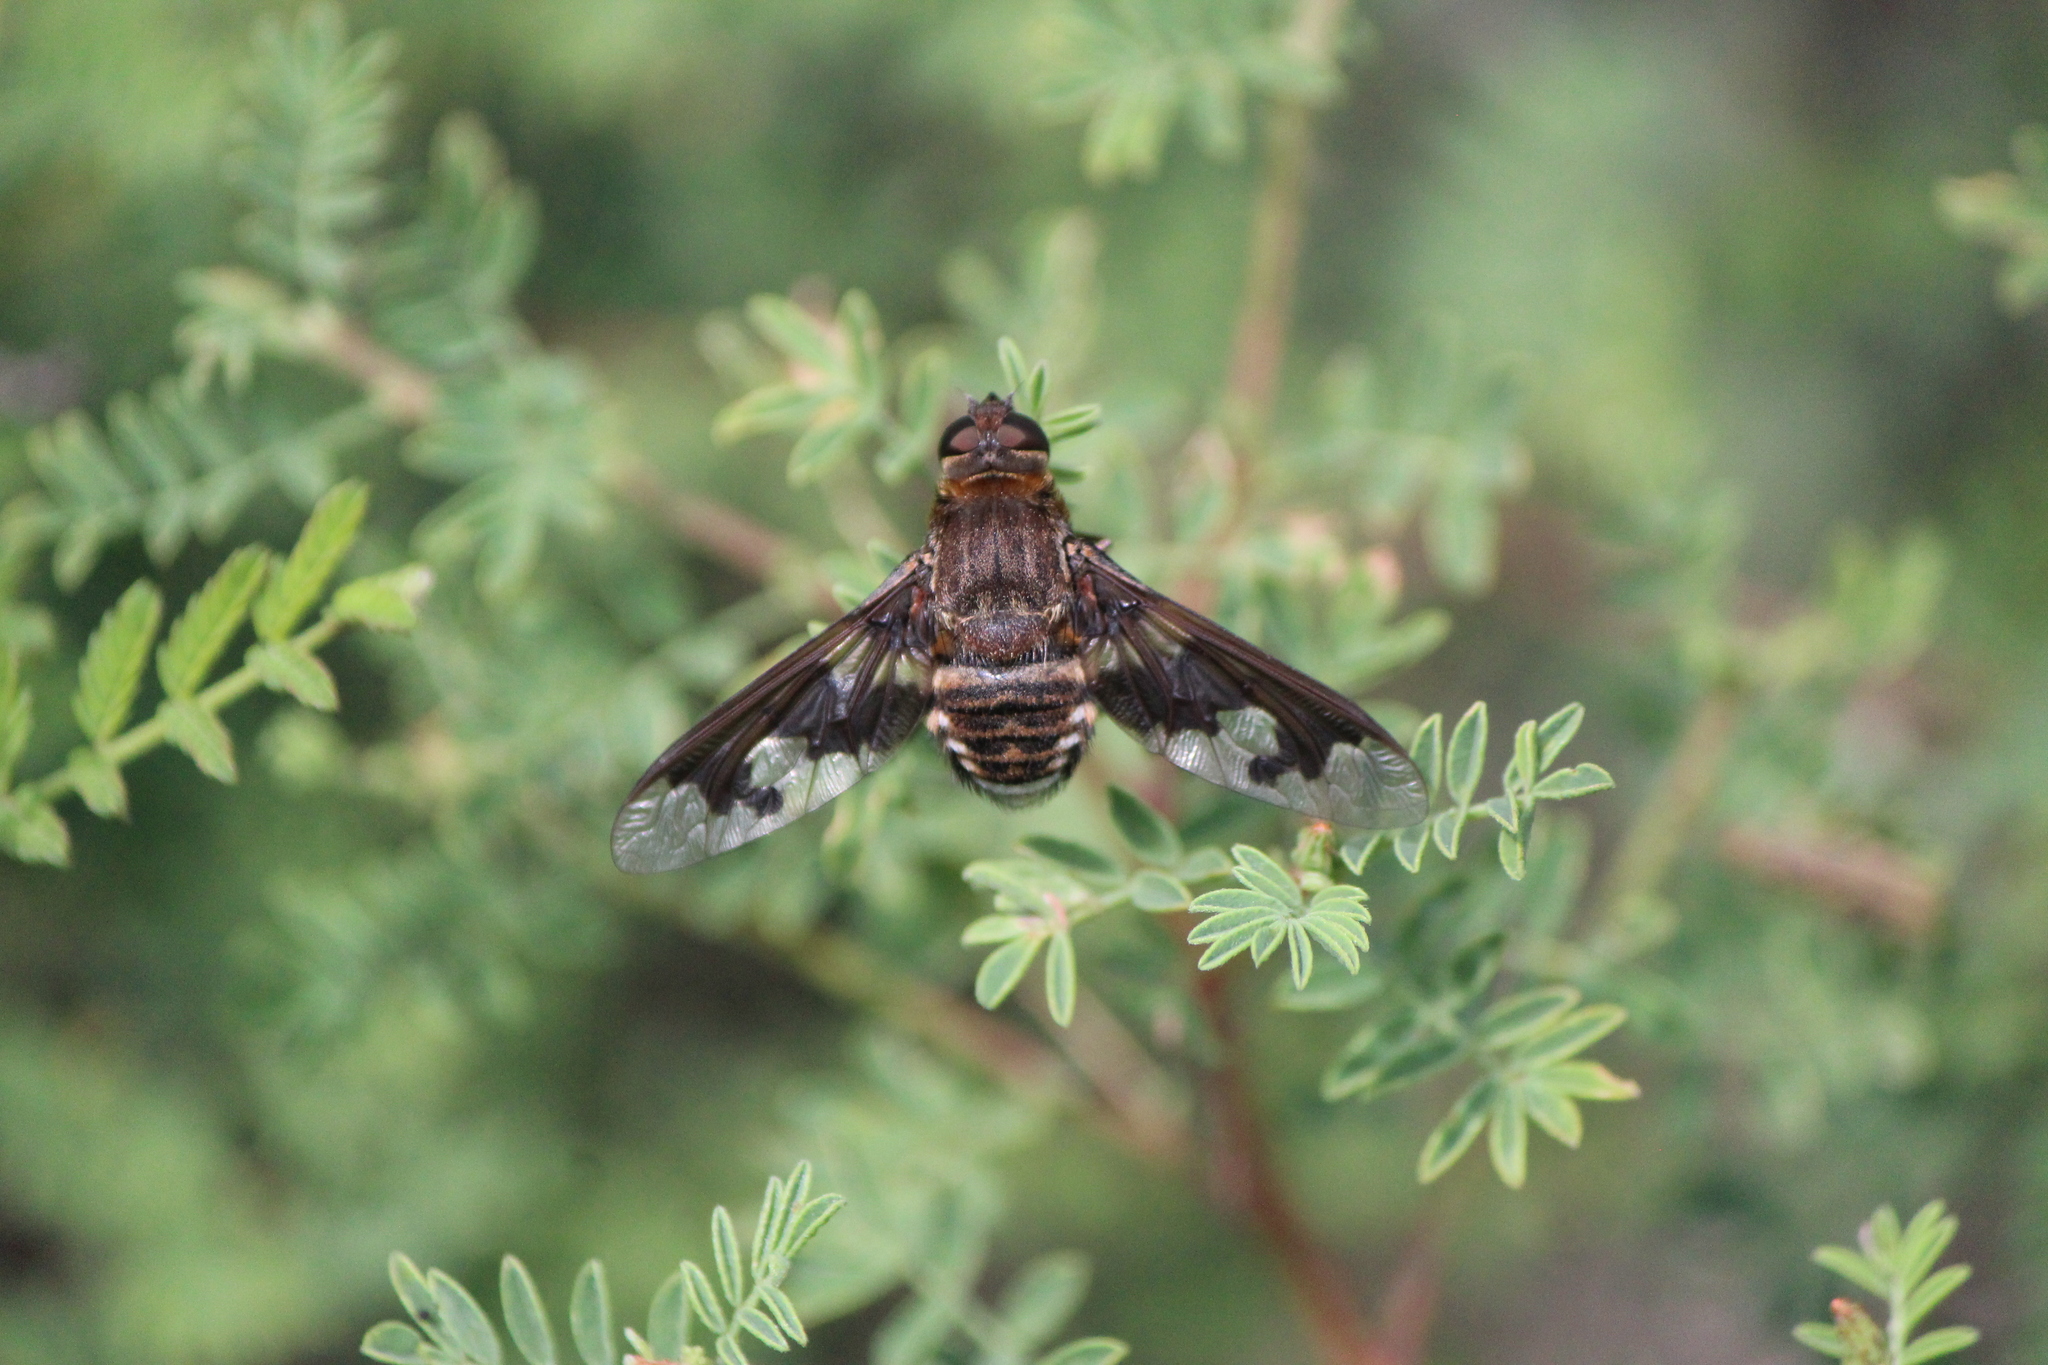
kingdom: Animalia
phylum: Arthropoda
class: Insecta
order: Diptera
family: Bombyliidae
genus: Exoprosopa
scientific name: Exoprosopa pueblensis
